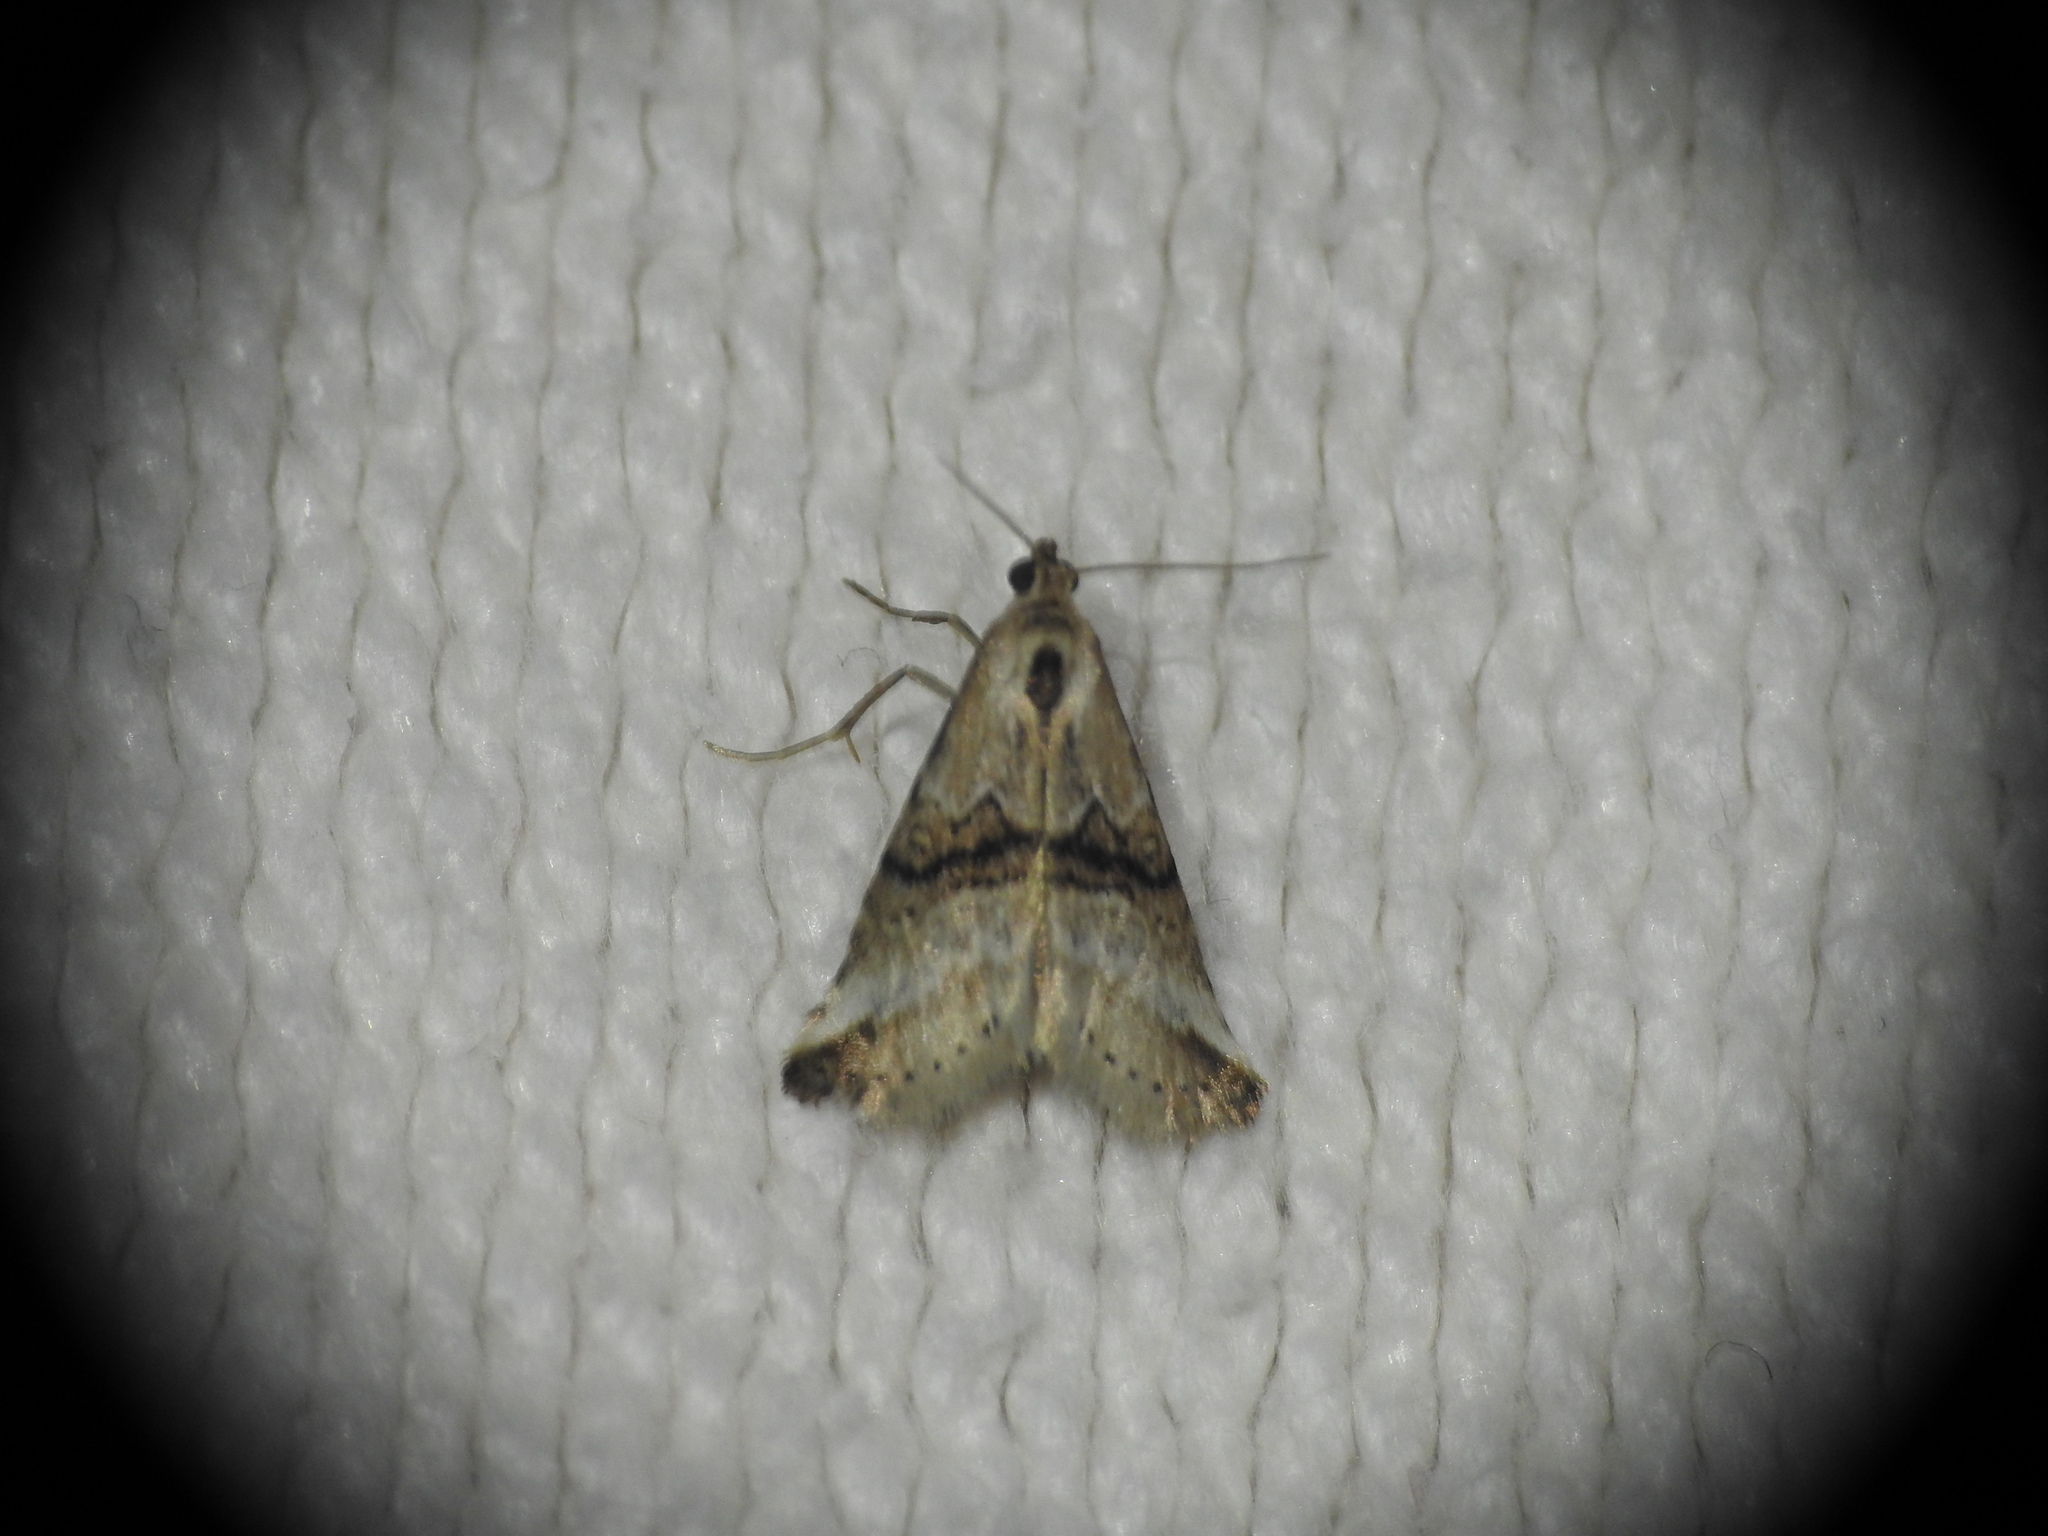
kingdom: Animalia
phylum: Arthropoda
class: Insecta
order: Lepidoptera
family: Erebidae
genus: Zebeeba
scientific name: Zebeeba falsalis
